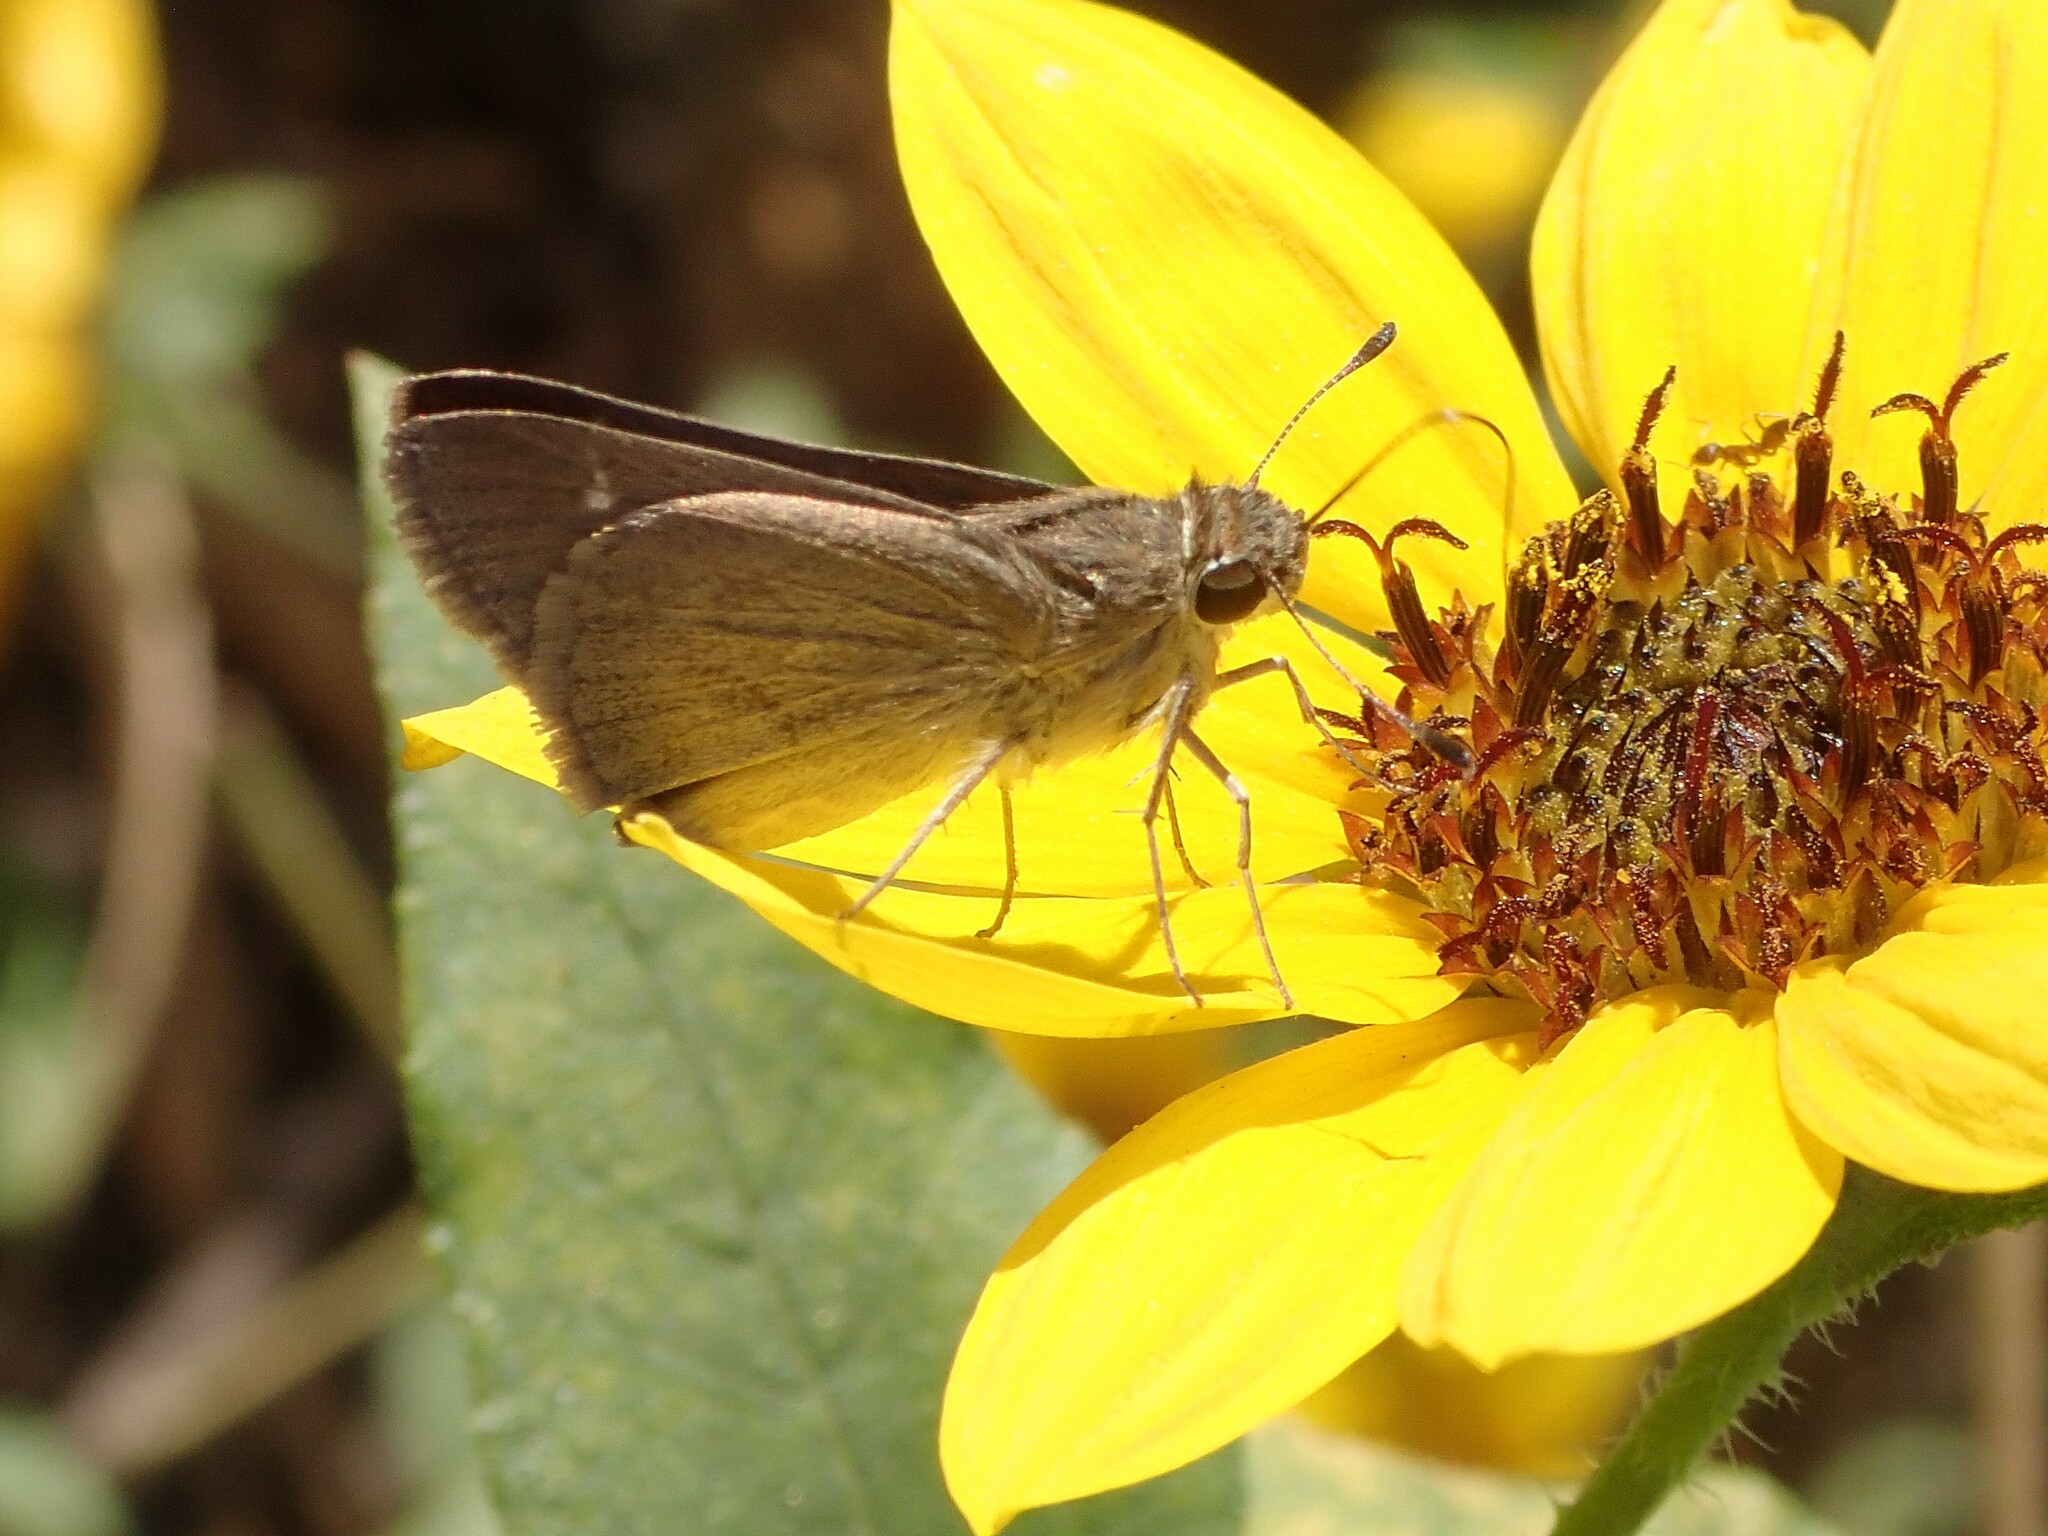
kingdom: Animalia
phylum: Arthropoda
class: Insecta
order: Lepidoptera
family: Hesperiidae
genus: Lerodea
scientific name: Lerodea eufala
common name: Eufala skipper
